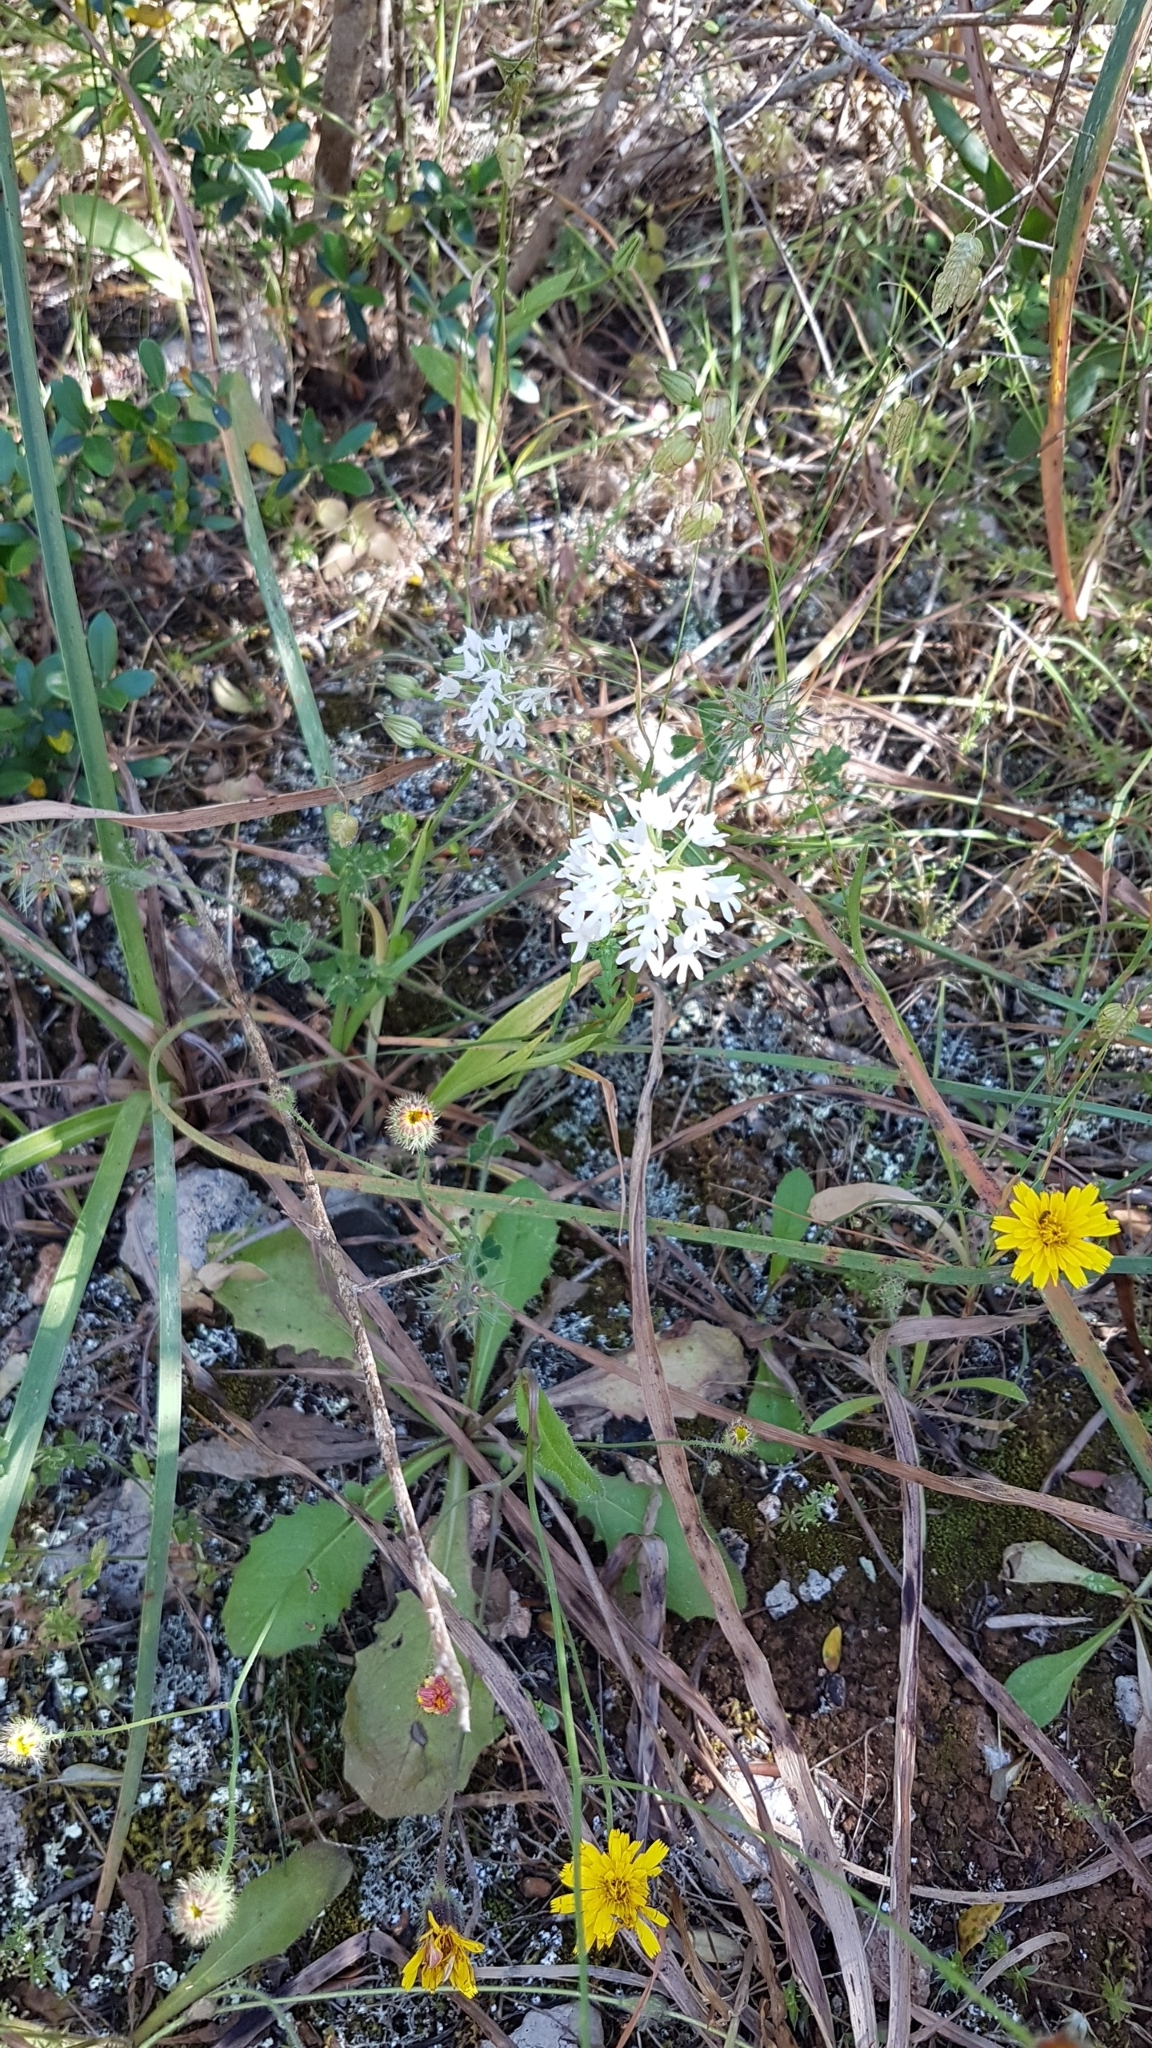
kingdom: Plantae
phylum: Tracheophyta
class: Liliopsida
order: Asparagales
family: Orchidaceae
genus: Anacamptis
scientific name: Anacamptis pyramidalis
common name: Pyramidal orchid
